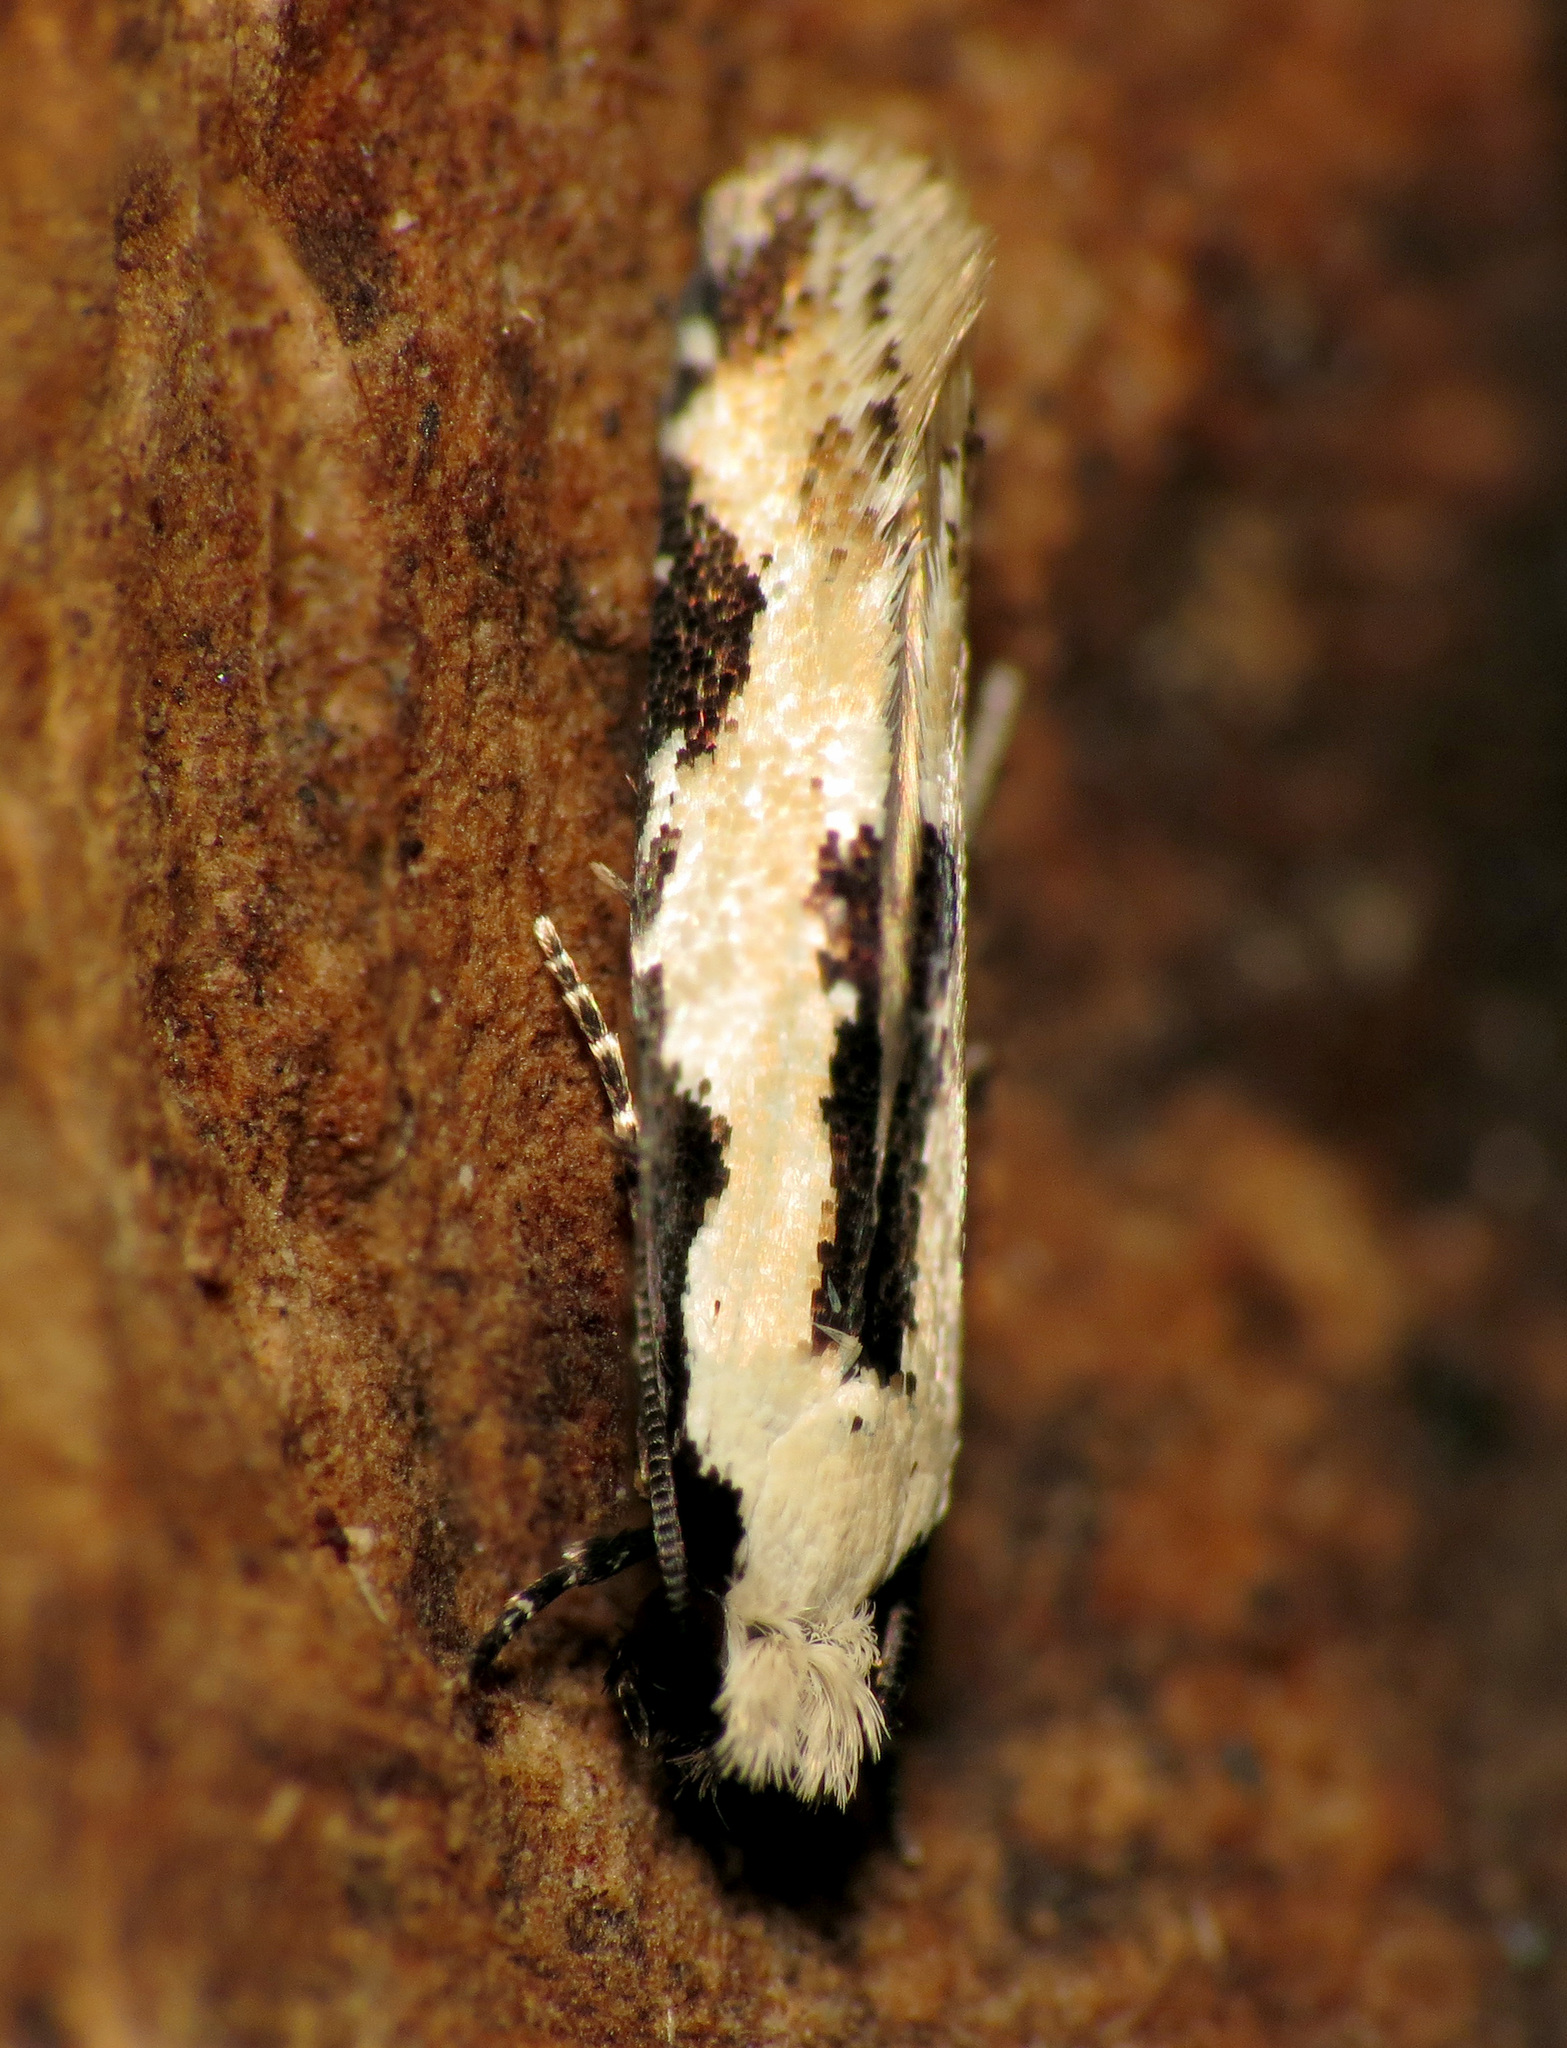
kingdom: Animalia
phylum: Arthropoda
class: Insecta
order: Lepidoptera
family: Meessiidae
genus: Mea
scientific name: Mea bipunctella
